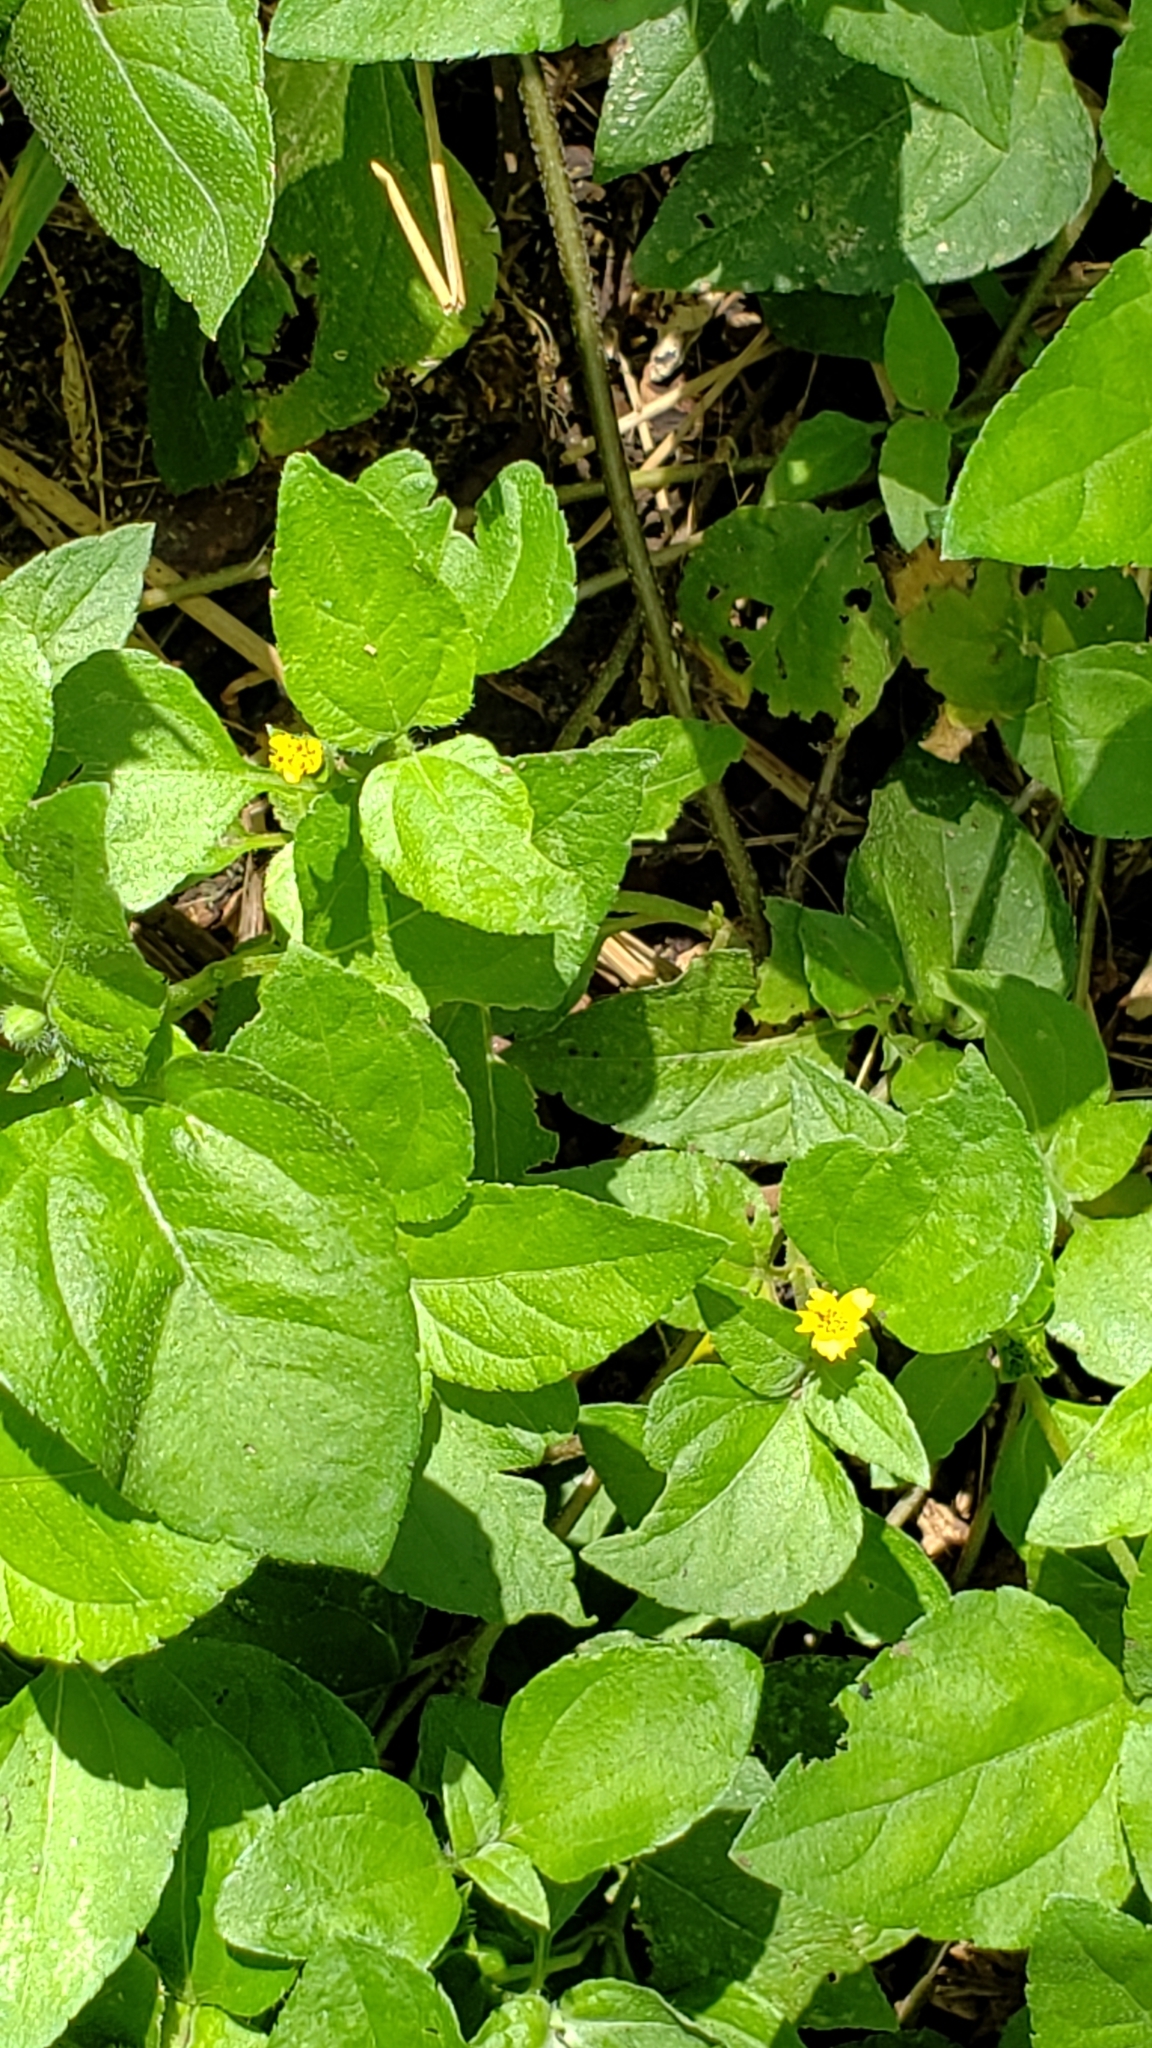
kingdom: Plantae
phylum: Tracheophyta
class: Magnoliopsida
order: Asterales
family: Asteraceae
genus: Calyptocarpus
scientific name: Calyptocarpus vialis
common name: Straggler daisy
